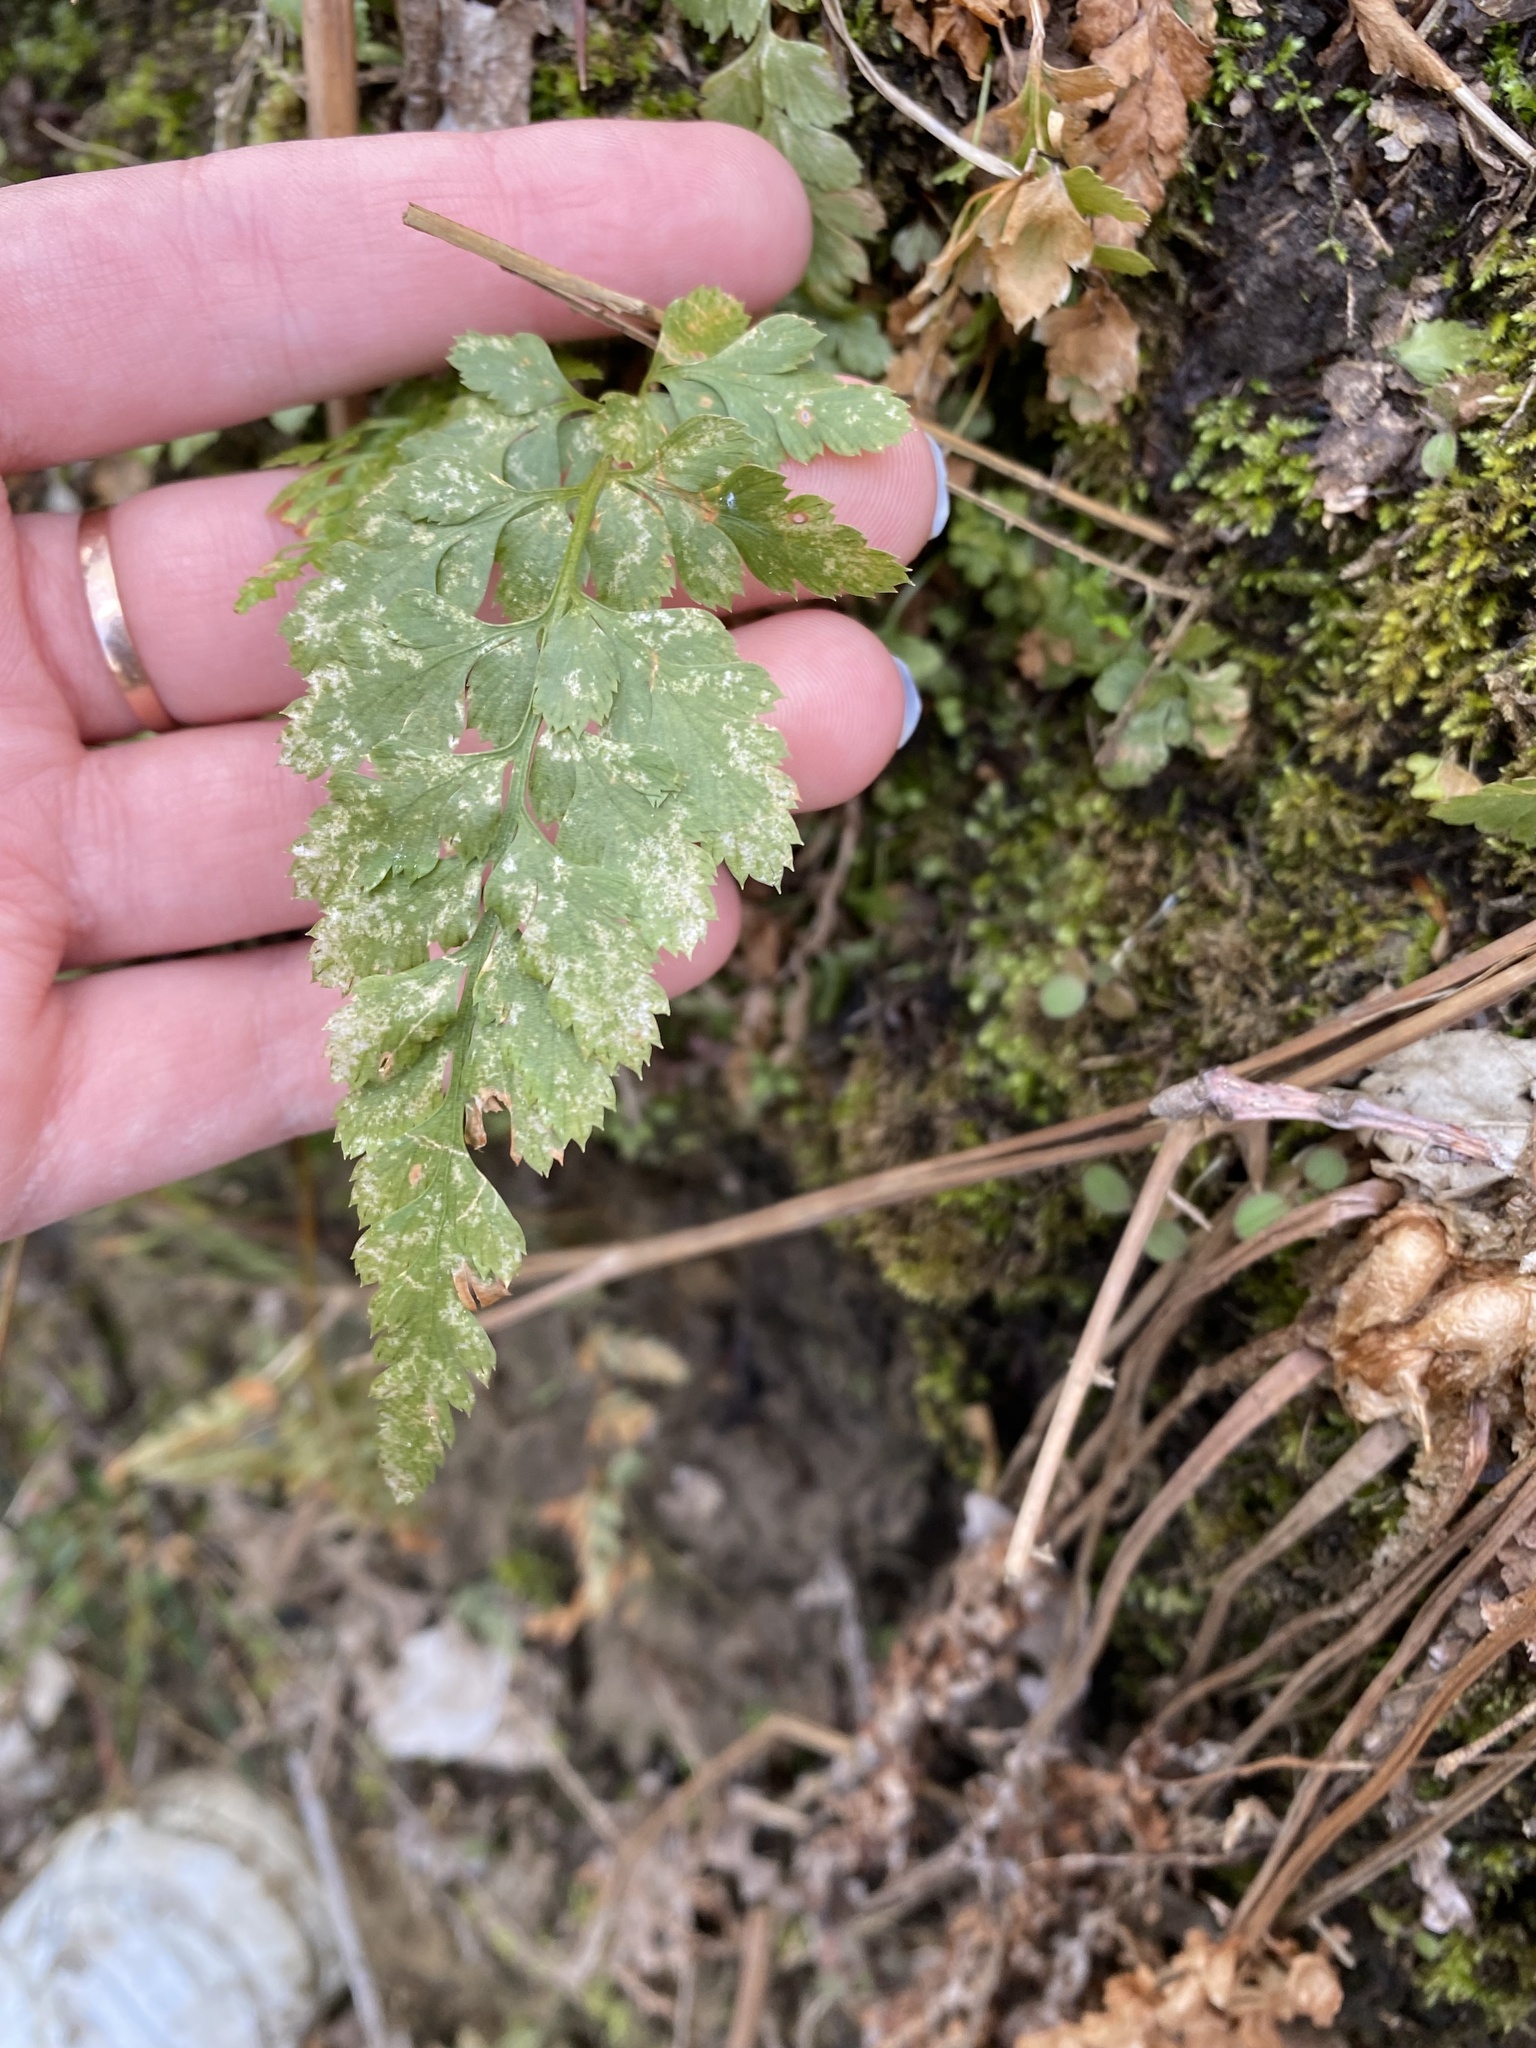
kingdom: Plantae
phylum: Tracheophyta
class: Polypodiopsida
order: Polypodiales
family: Aspleniaceae
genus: Asplenium
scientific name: Asplenium adiantum-nigrum
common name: Black spleenwort
